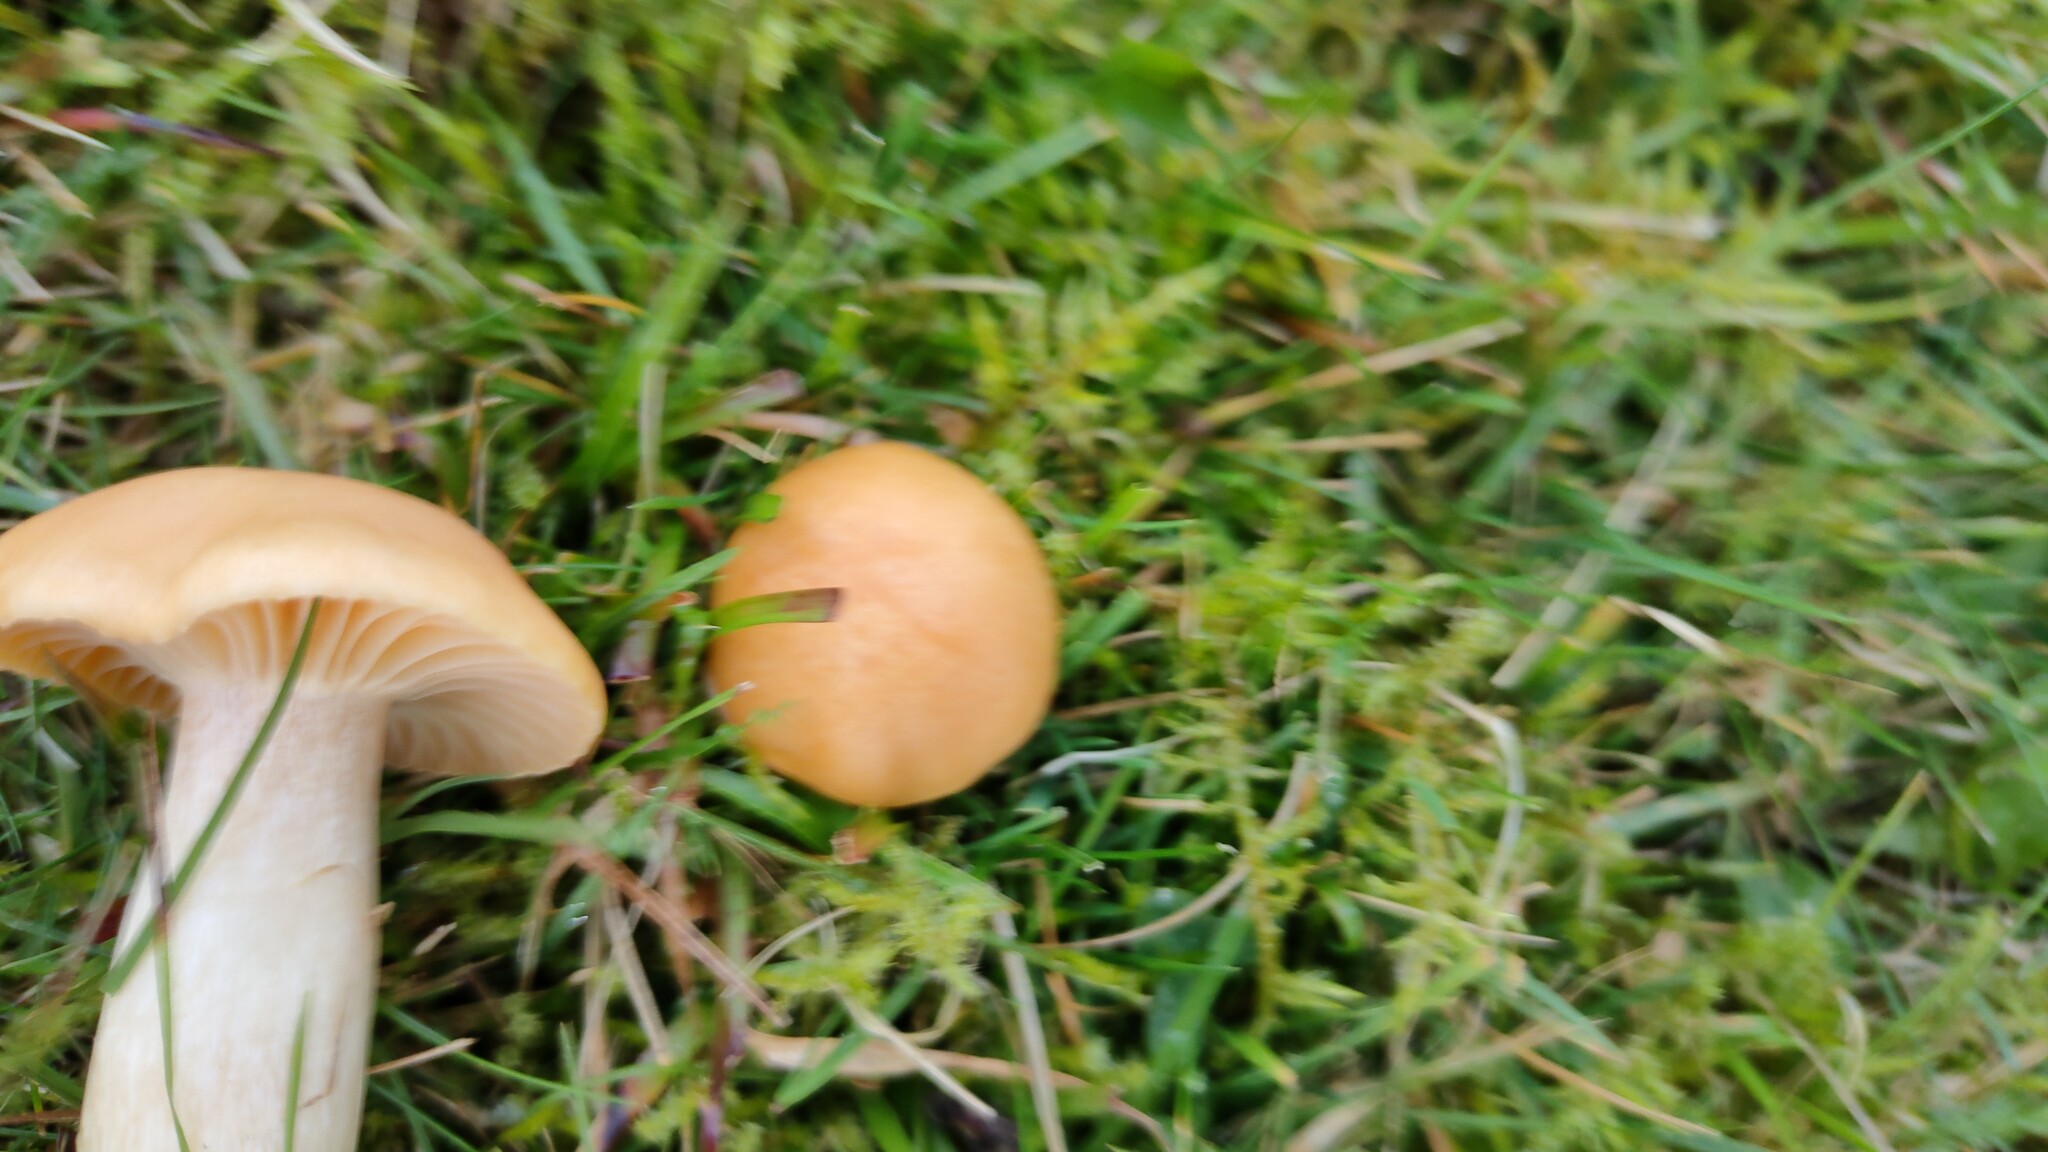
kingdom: Fungi
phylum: Basidiomycota
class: Agaricomycetes
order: Agaricales
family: Hygrophoraceae
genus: Cuphophyllus
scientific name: Cuphophyllus pratensis
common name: Meadow waxcap
